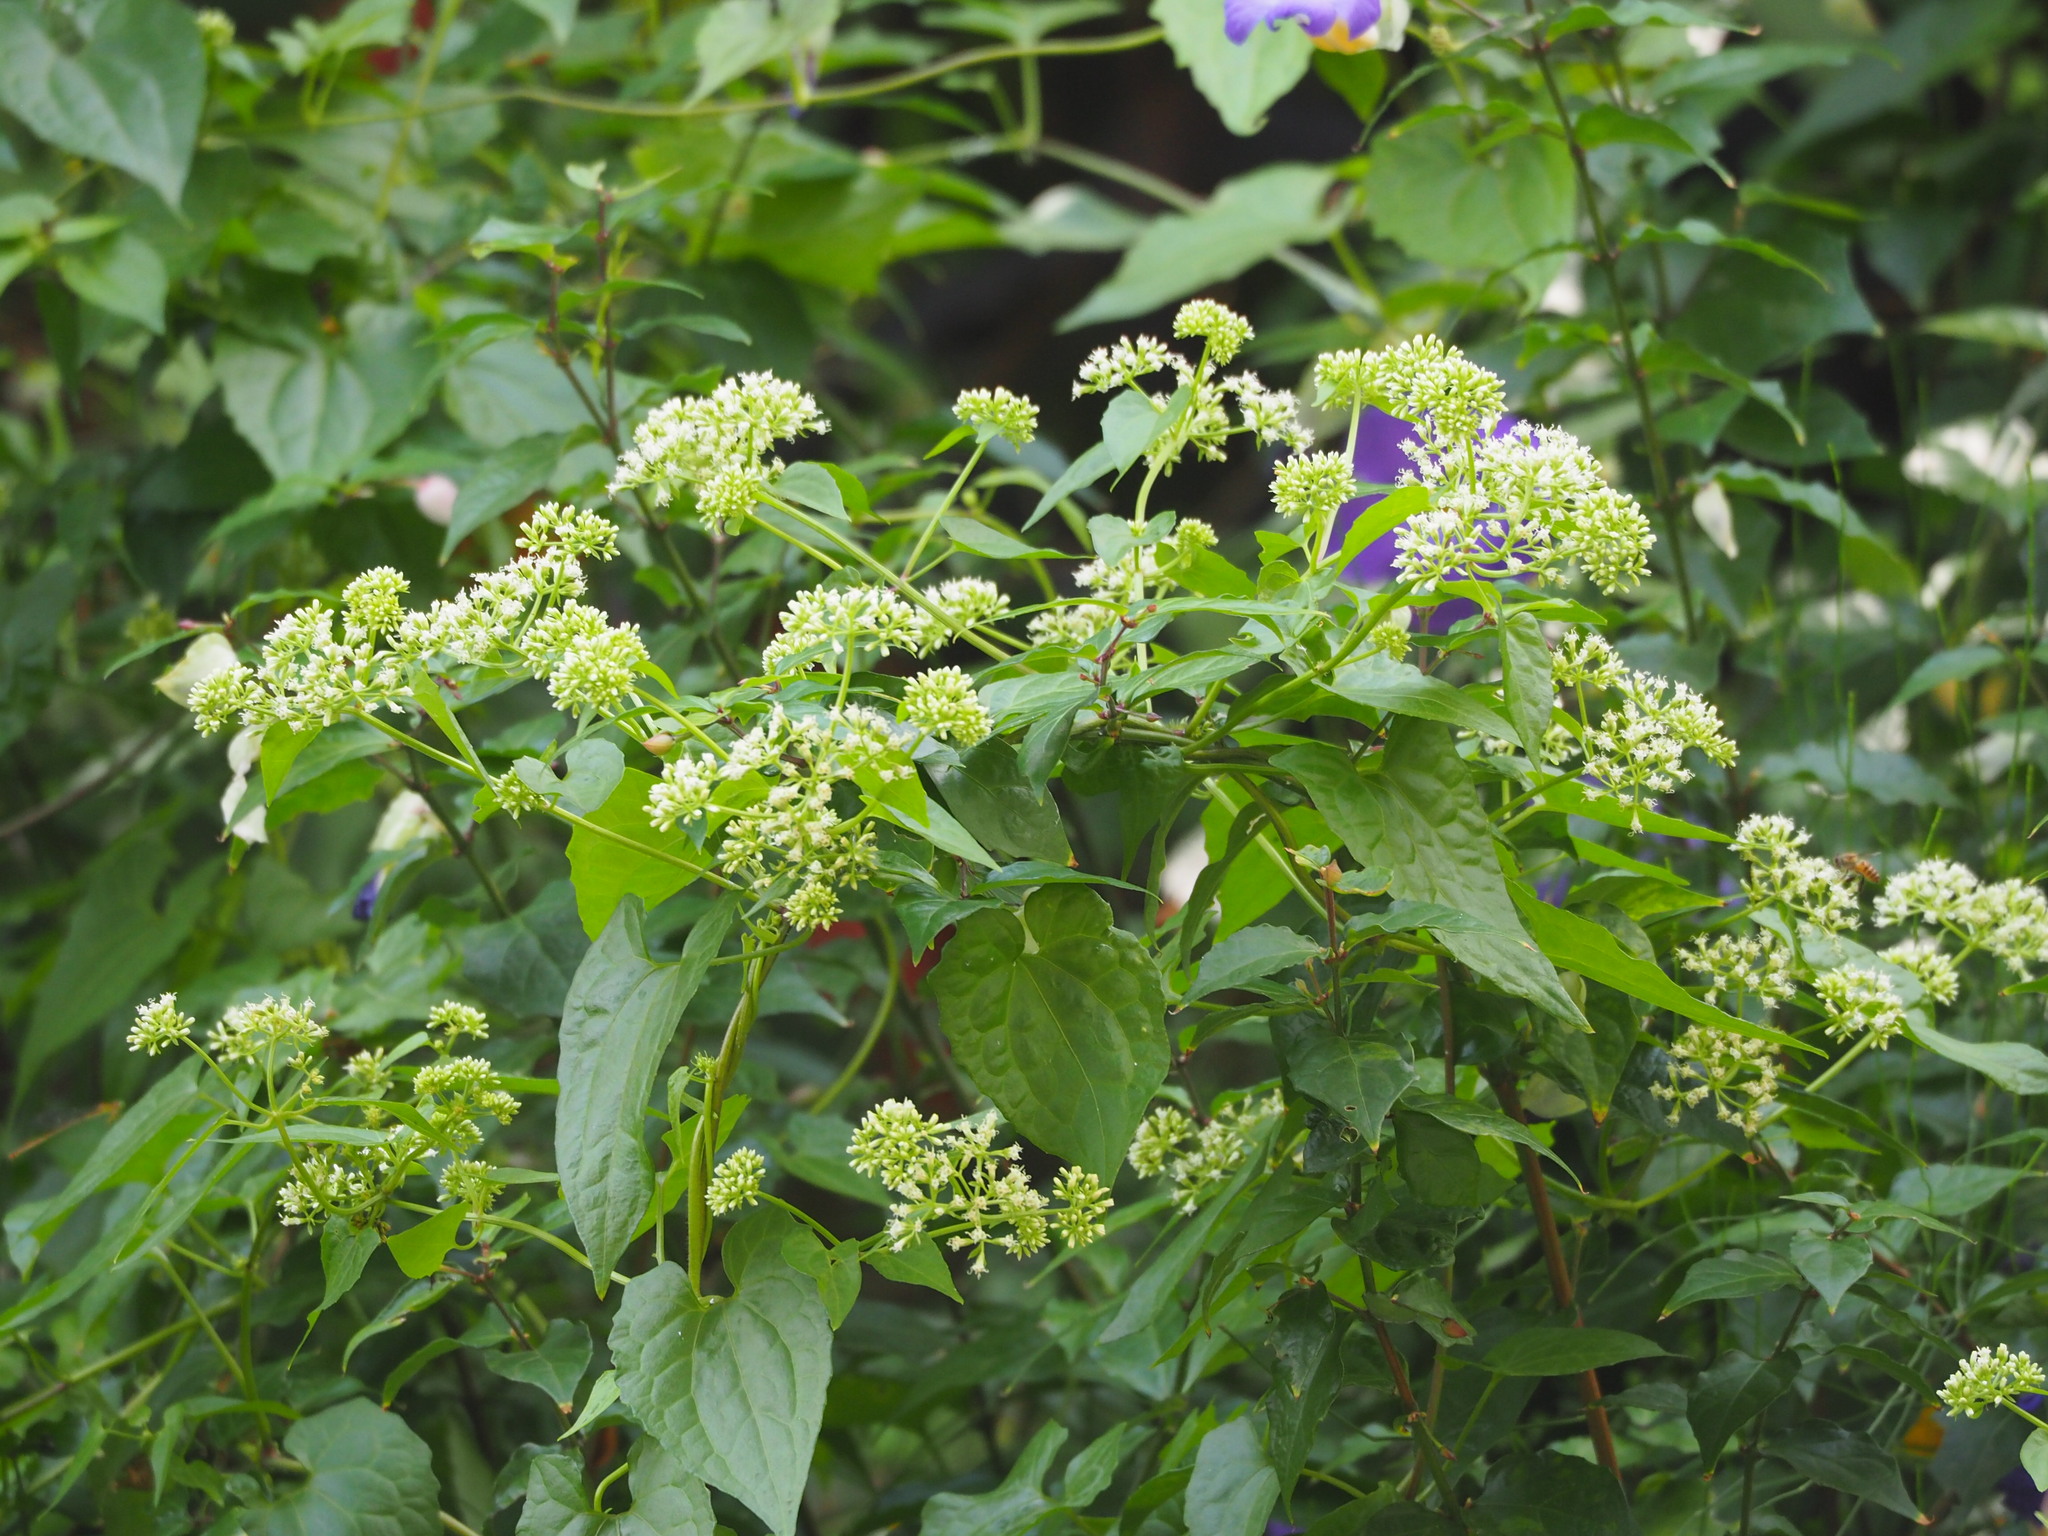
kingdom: Plantae
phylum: Tracheophyta
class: Magnoliopsida
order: Asterales
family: Asteraceae
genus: Mikania
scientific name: Mikania micrantha
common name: Mile-a-minute
